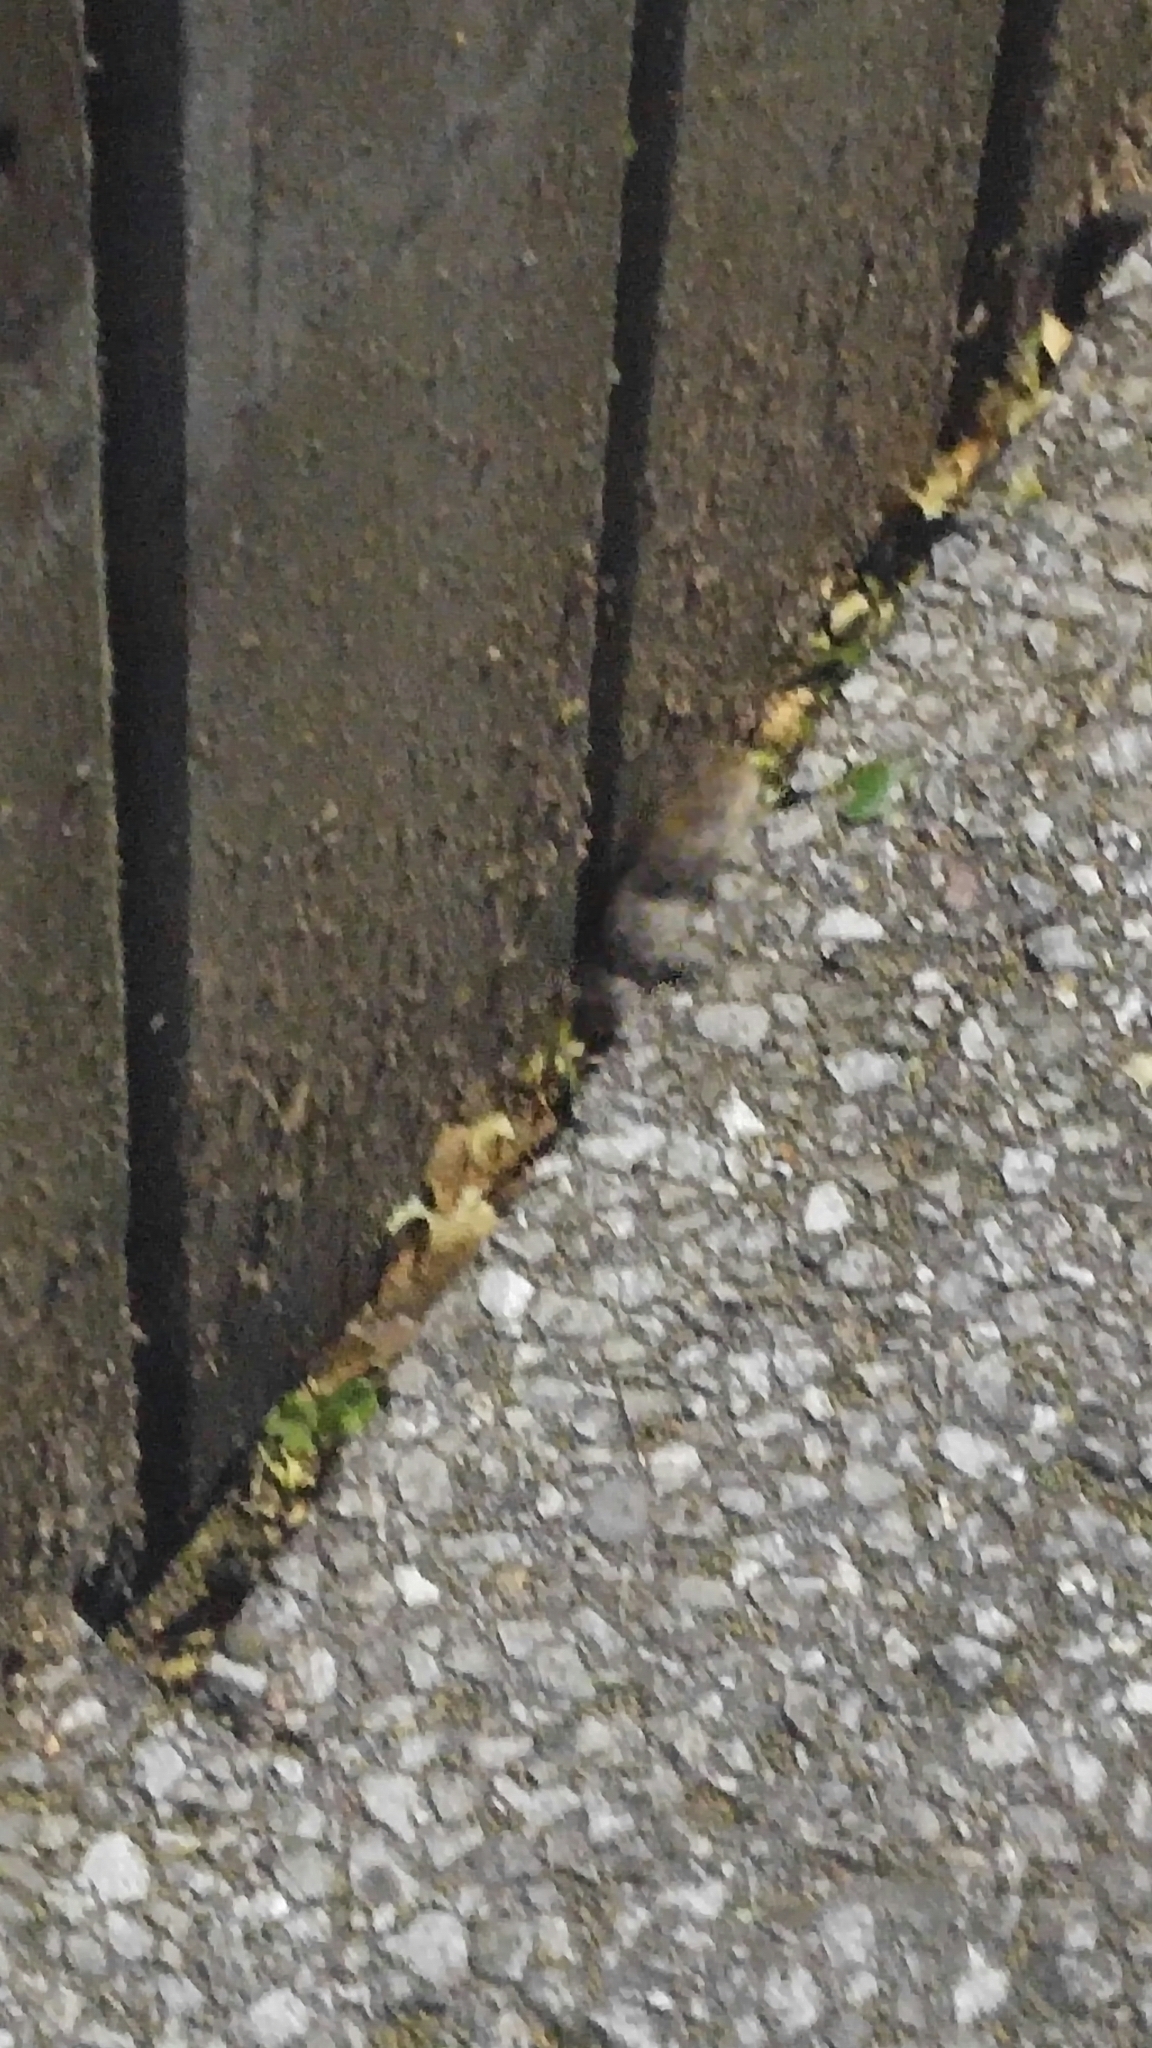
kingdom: Animalia
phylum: Chordata
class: Amphibia
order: Anura
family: Bufonidae
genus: Anaxyrus
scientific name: Anaxyrus americanus
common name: American toad
